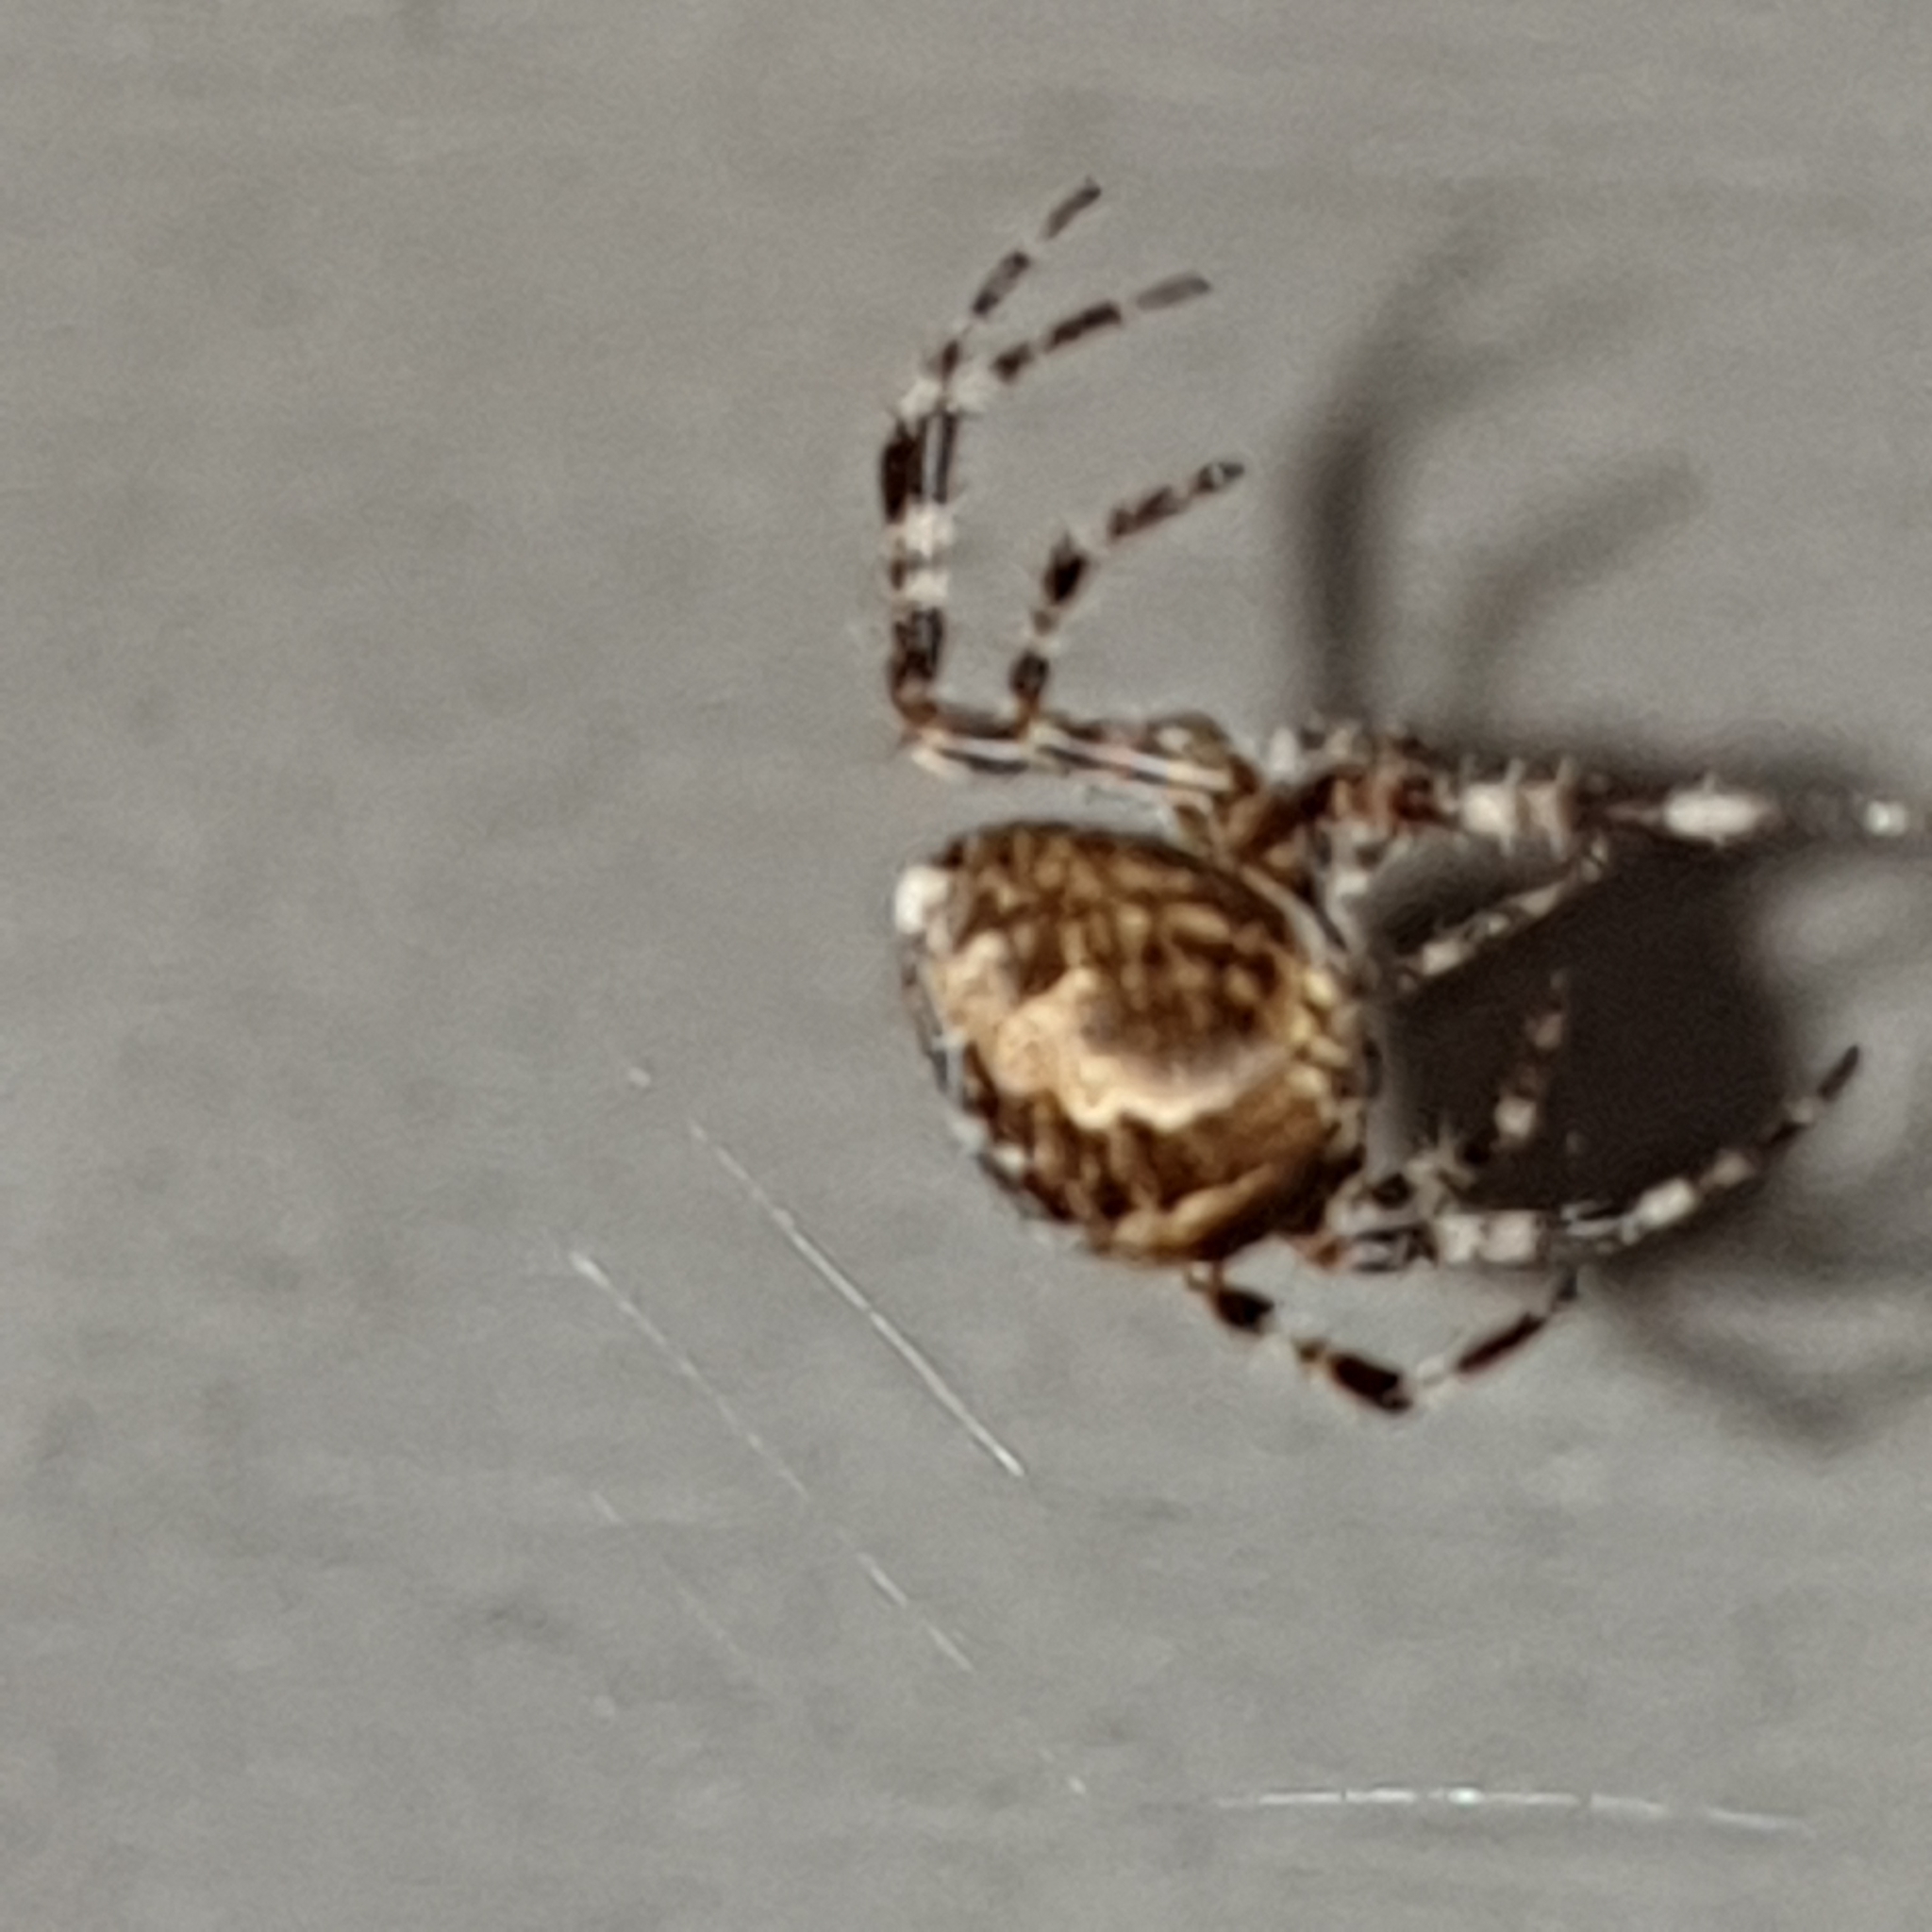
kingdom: Animalia
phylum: Arthropoda
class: Arachnida
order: Araneae
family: Araneidae
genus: Araneus
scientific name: Araneus diadematus
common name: Cross orbweaver
